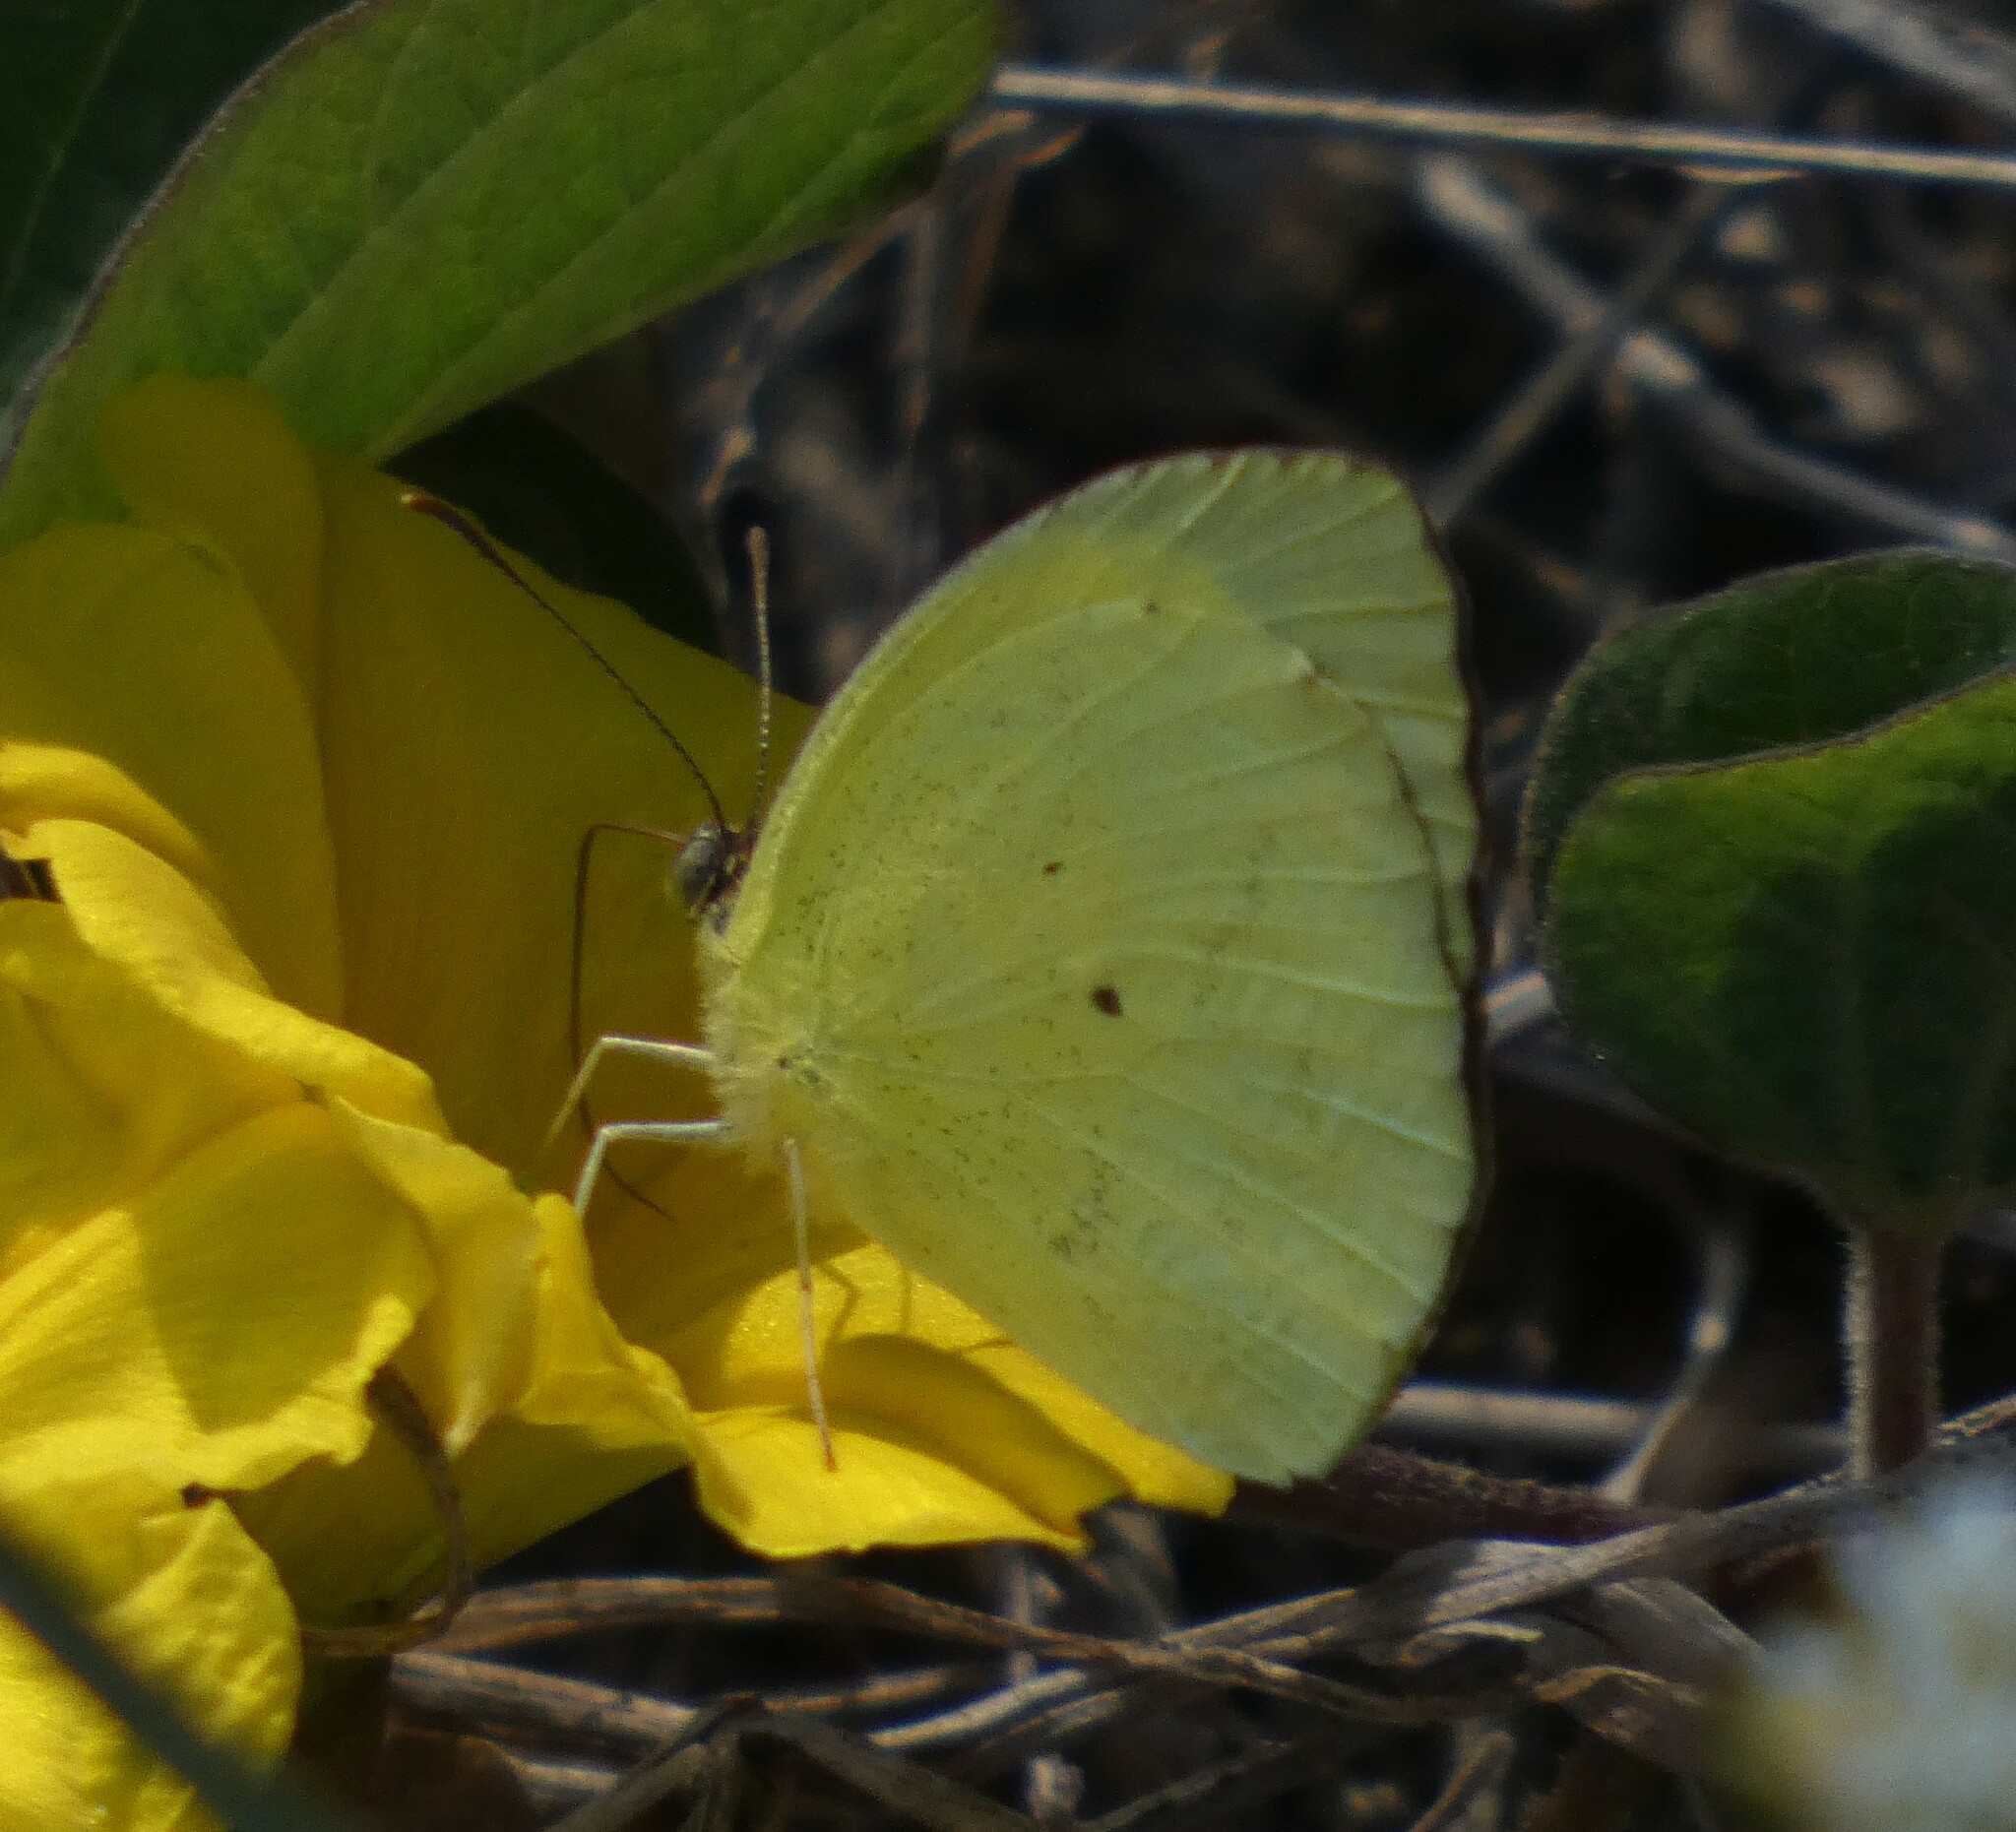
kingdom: Animalia
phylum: Arthropoda
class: Insecta
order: Lepidoptera
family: Pieridae
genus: Pyrisitia
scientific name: Pyrisitia nise
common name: Mimosa yellow
